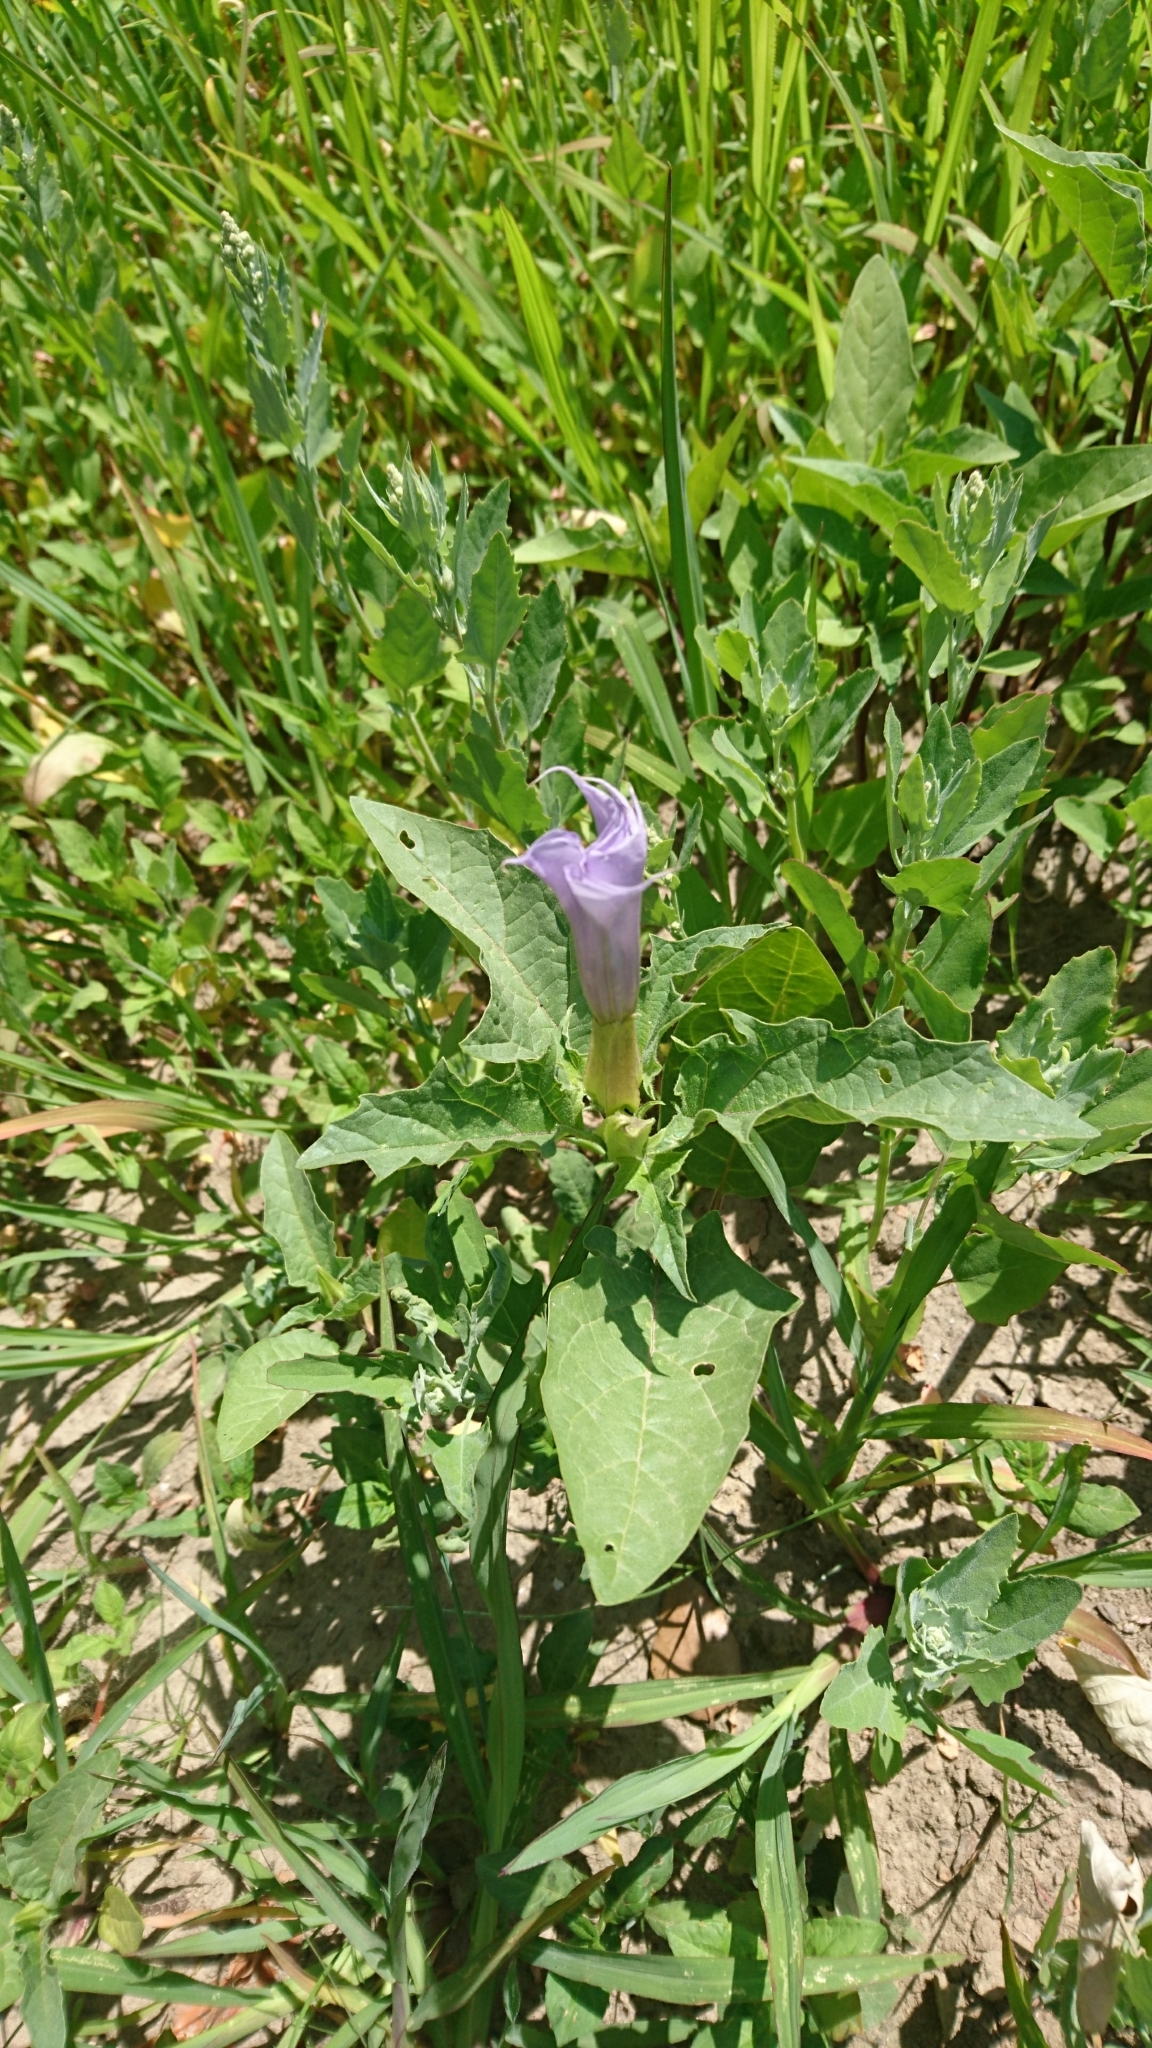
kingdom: Plantae
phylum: Tracheophyta
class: Magnoliopsida
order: Solanales
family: Solanaceae
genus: Datura
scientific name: Datura stramonium
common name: Thorn-apple
